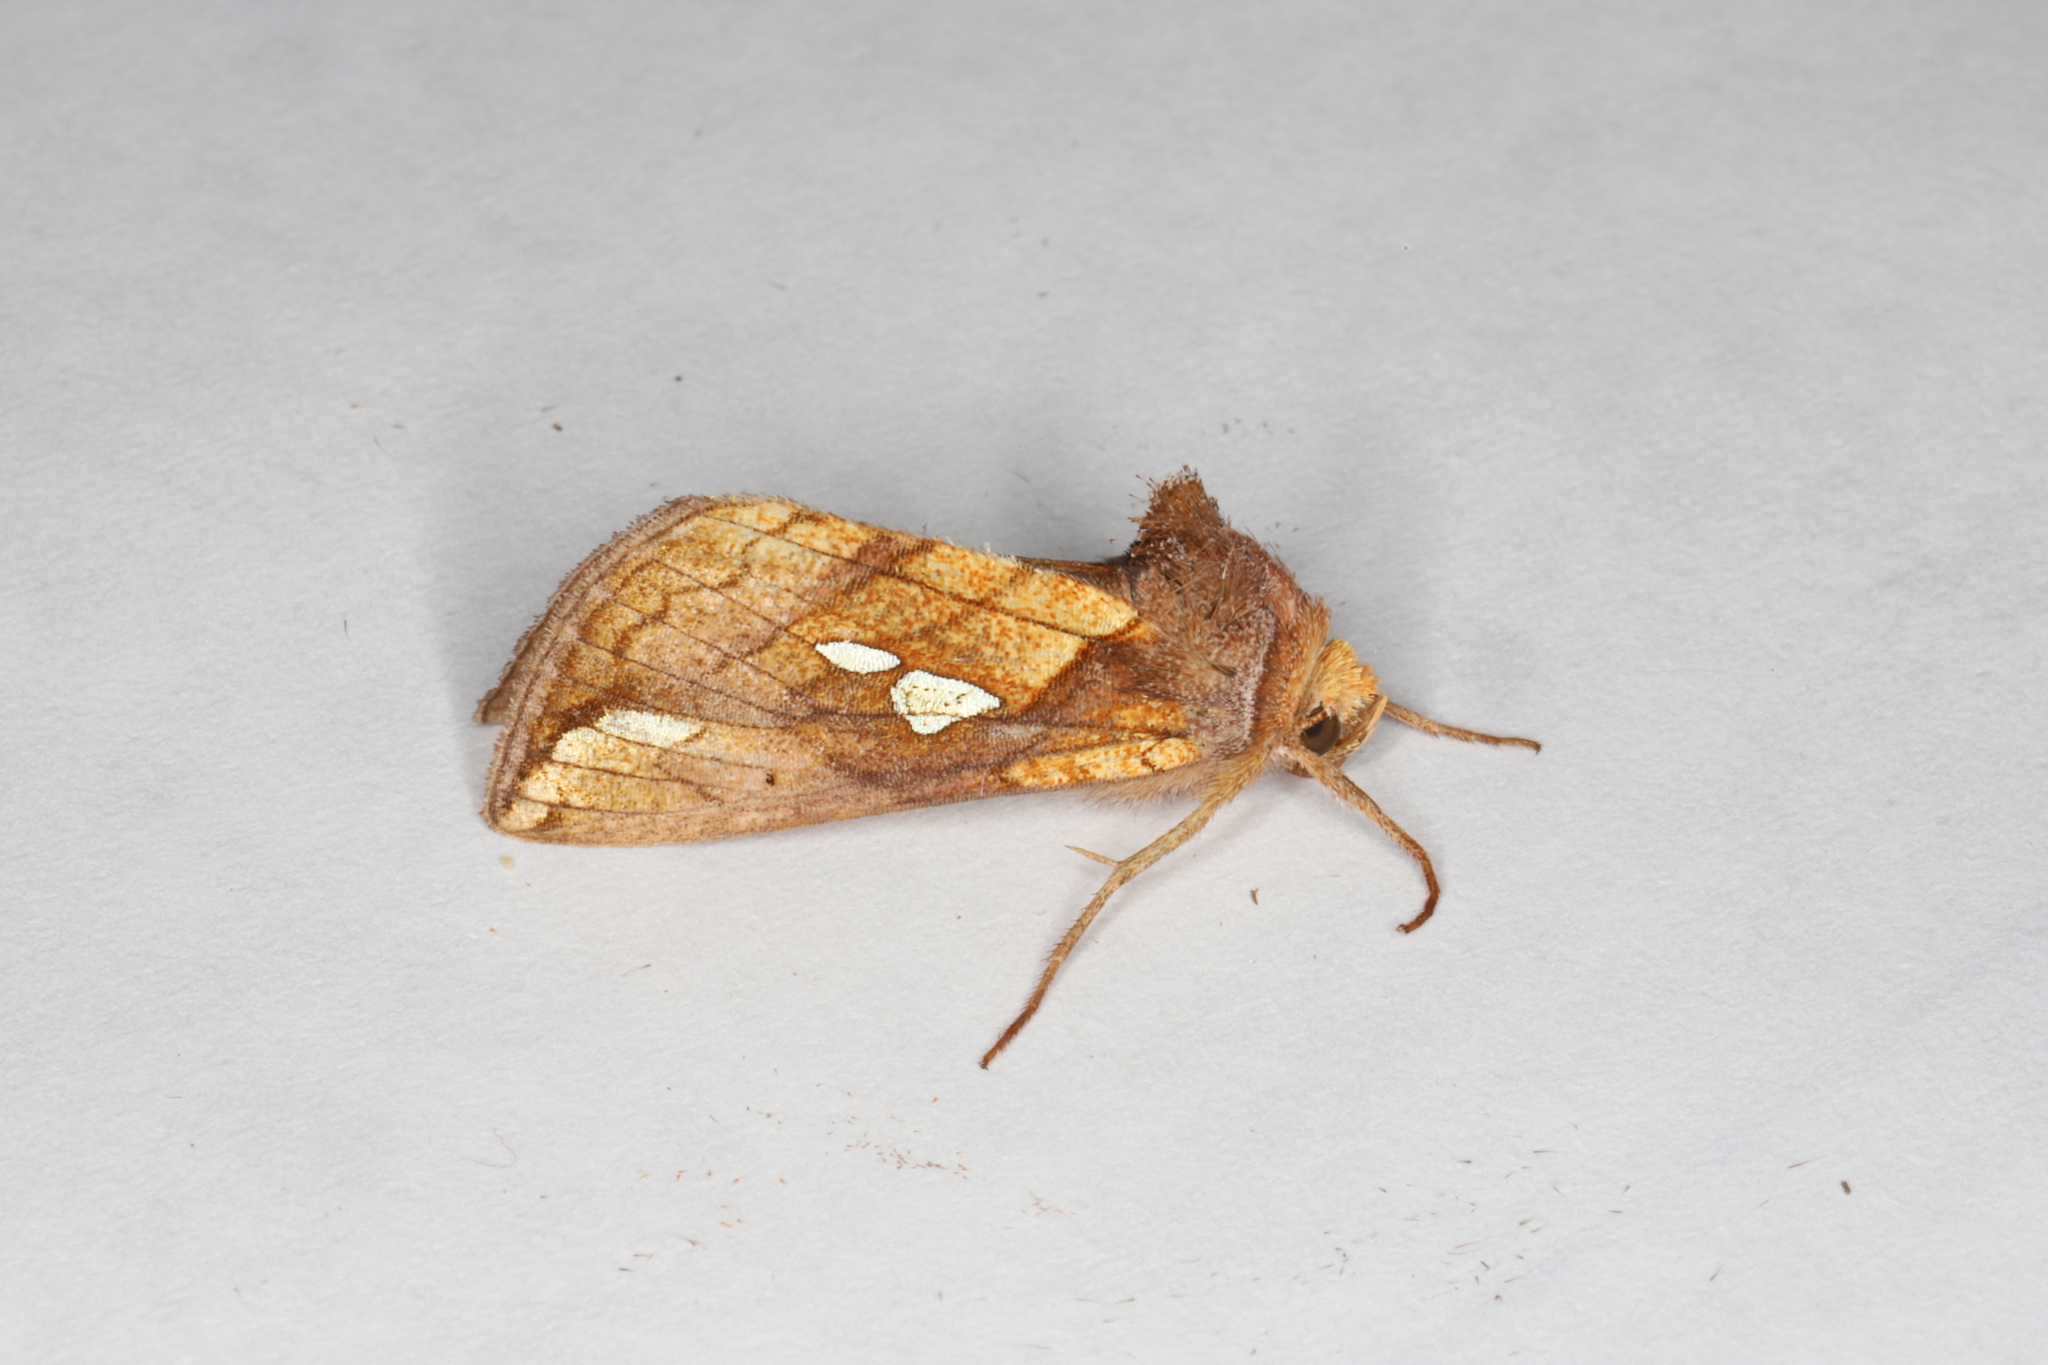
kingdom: Animalia
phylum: Arthropoda
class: Insecta
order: Lepidoptera
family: Noctuidae
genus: Plusia
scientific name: Plusia putnami
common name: Lempke's gold spot
